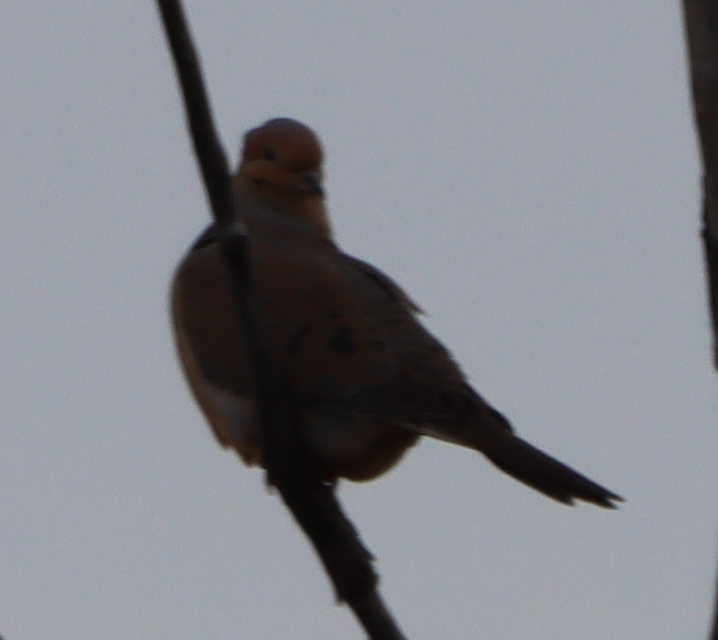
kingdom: Animalia
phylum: Chordata
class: Aves
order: Columbiformes
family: Columbidae
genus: Zenaida
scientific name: Zenaida macroura
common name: Mourning dove
